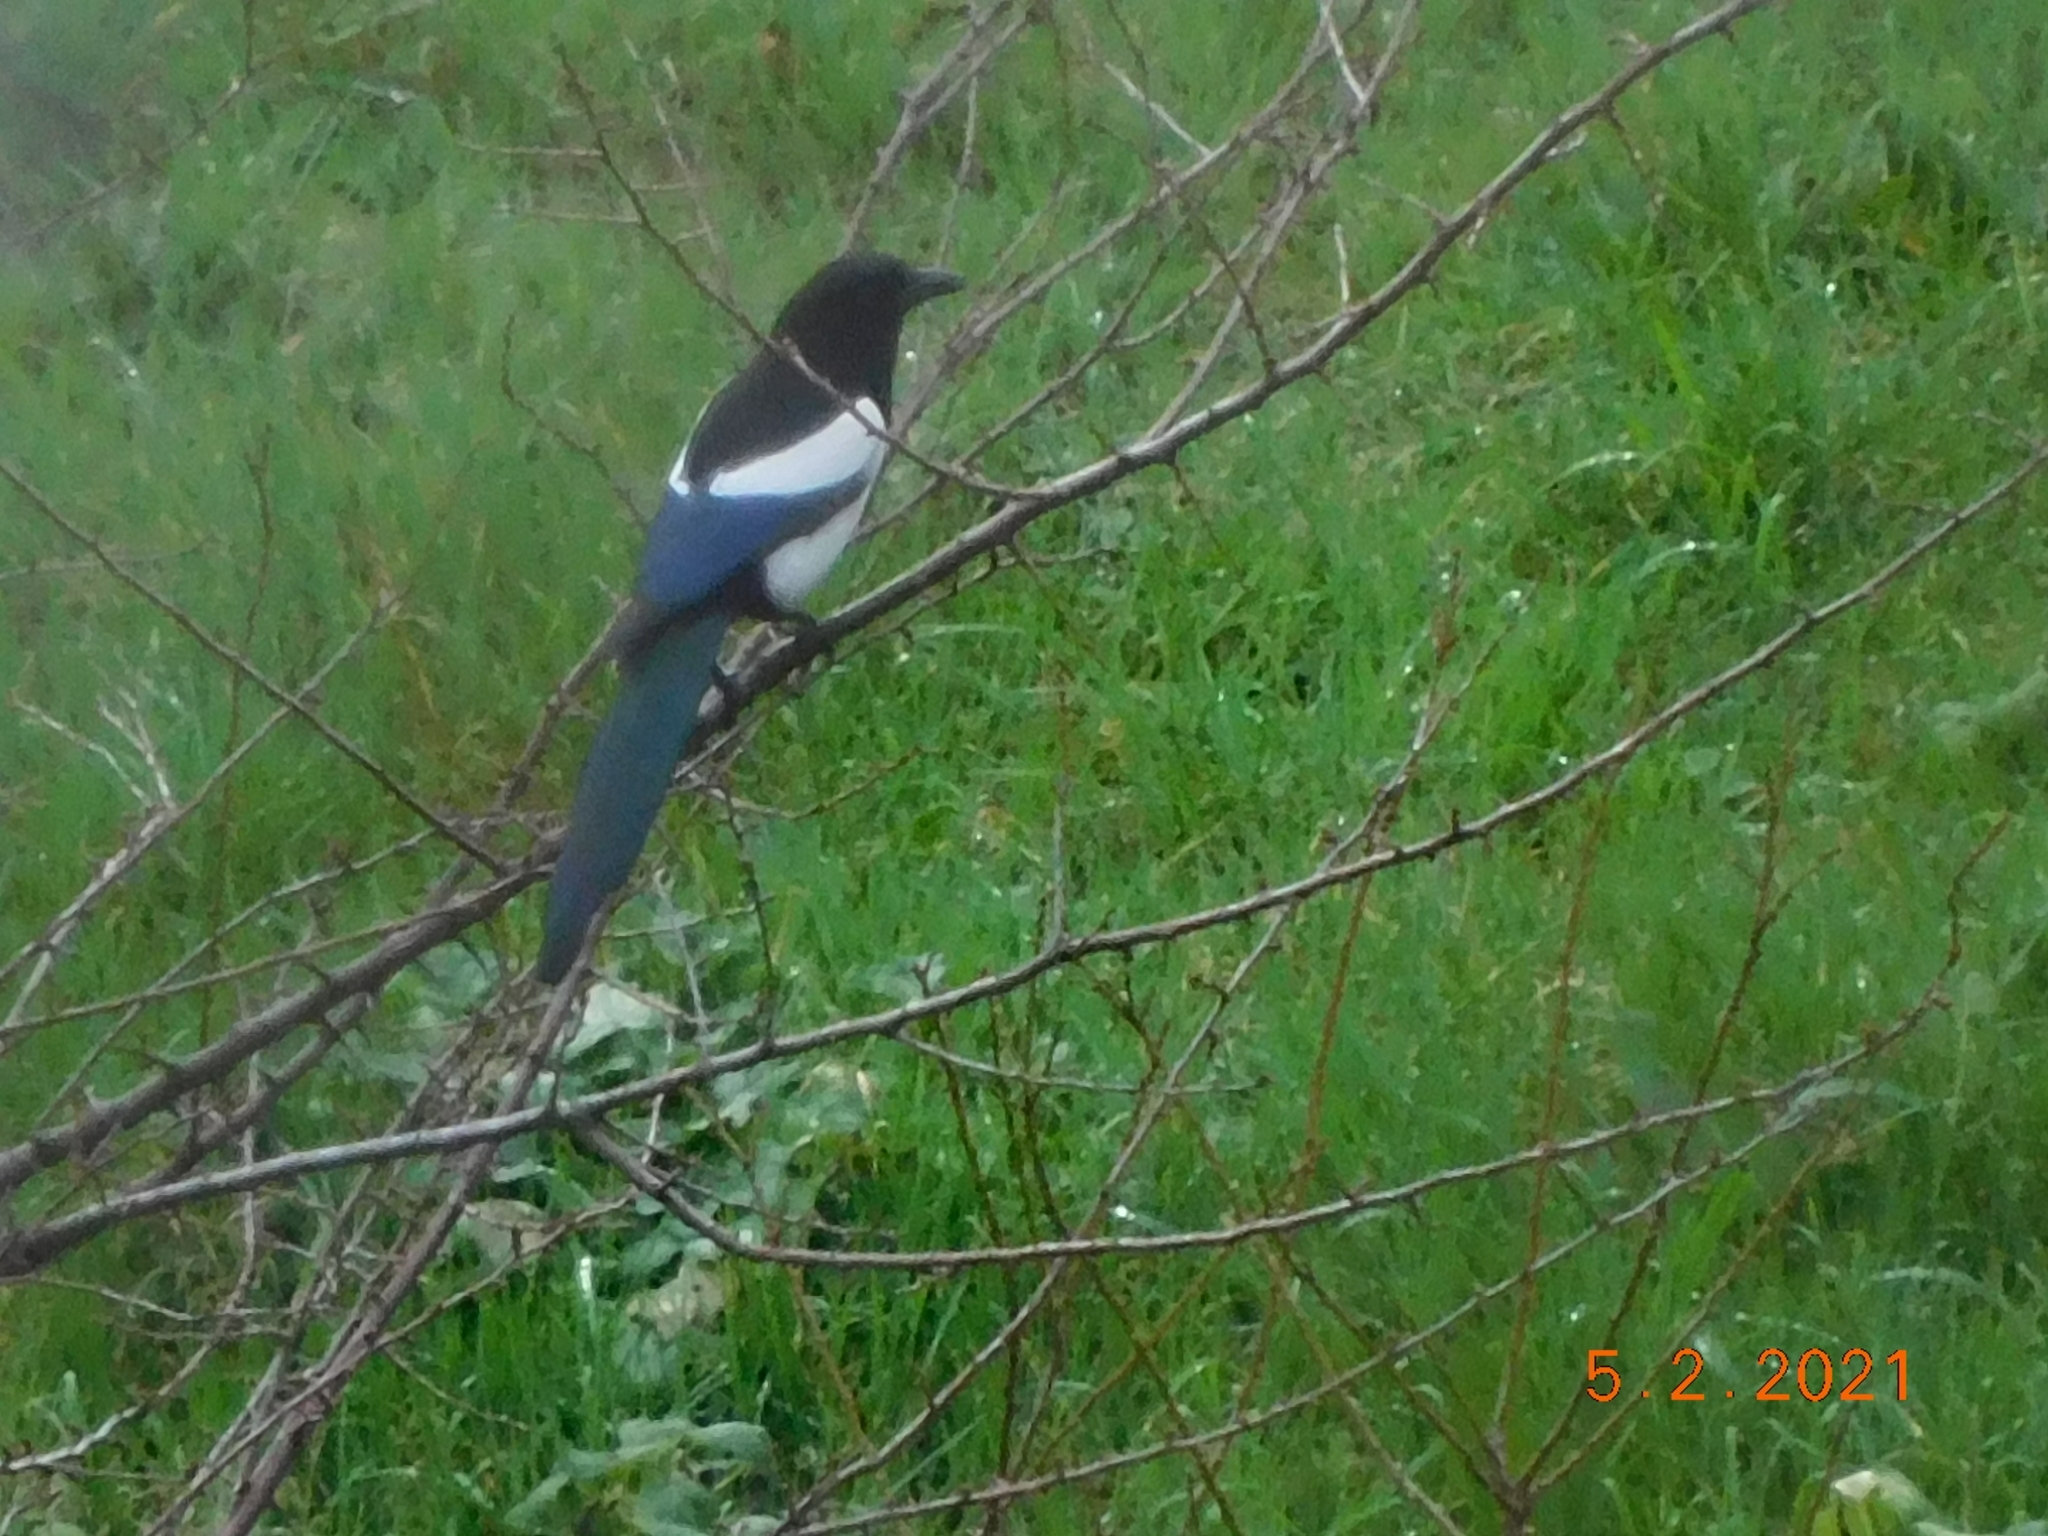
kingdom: Animalia
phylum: Chordata
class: Aves
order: Passeriformes
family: Corvidae
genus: Pica
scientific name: Pica pica
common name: Eurasian magpie
